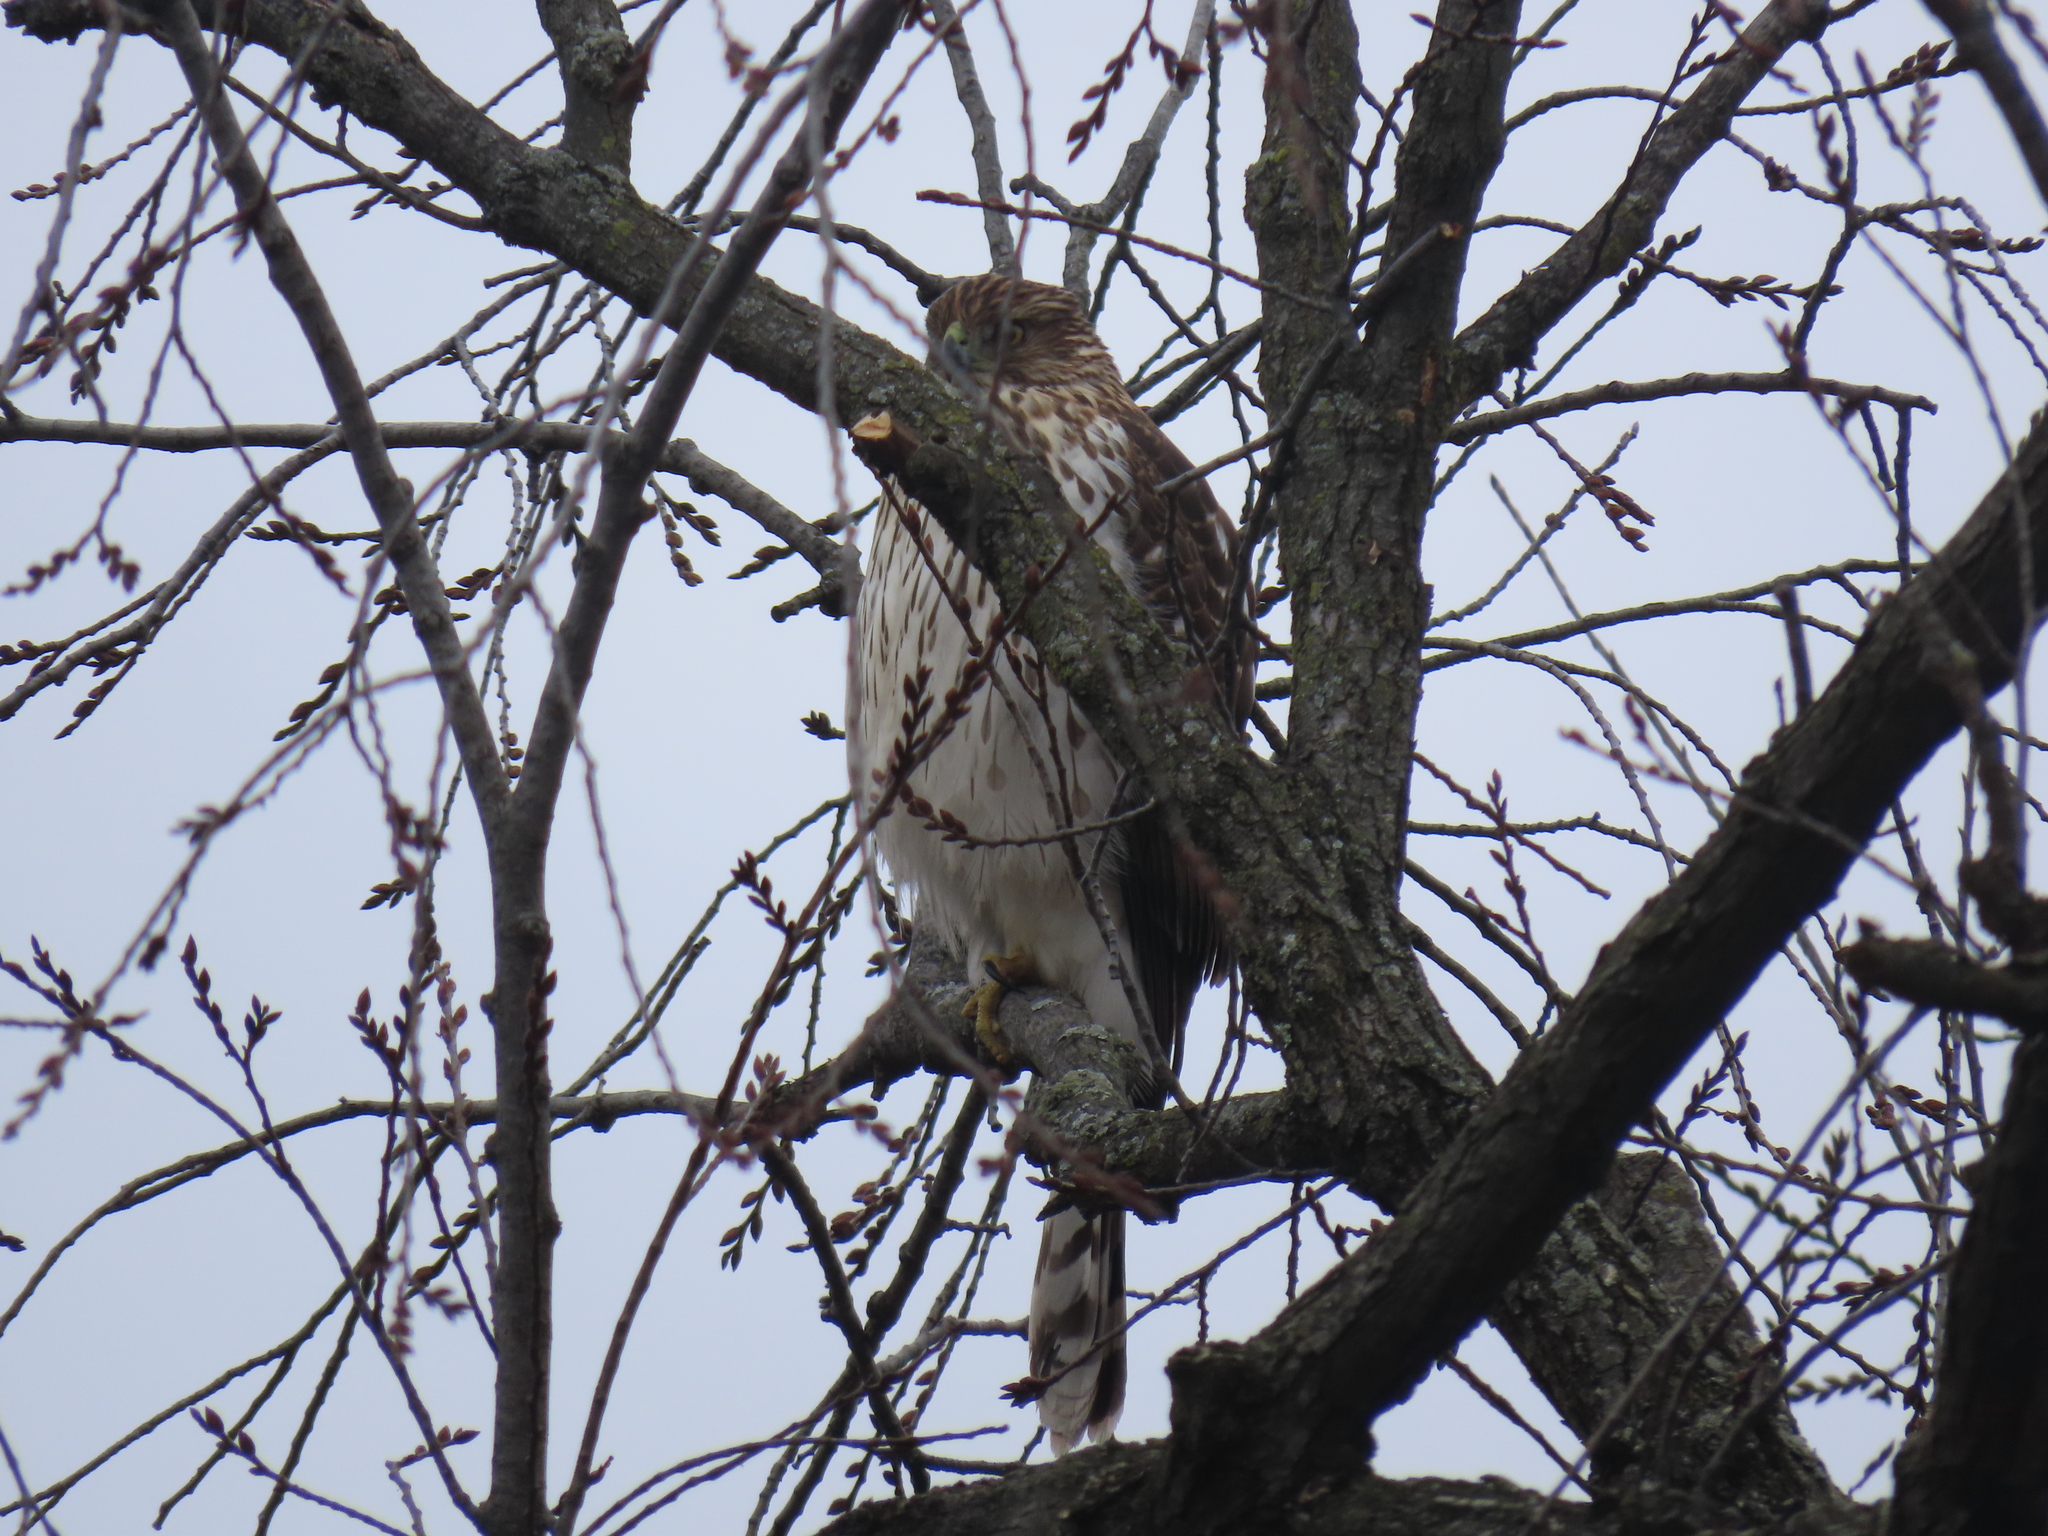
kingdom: Animalia
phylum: Chordata
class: Aves
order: Accipitriformes
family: Accipitridae
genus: Accipiter
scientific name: Accipiter cooperii
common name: Cooper's hawk
